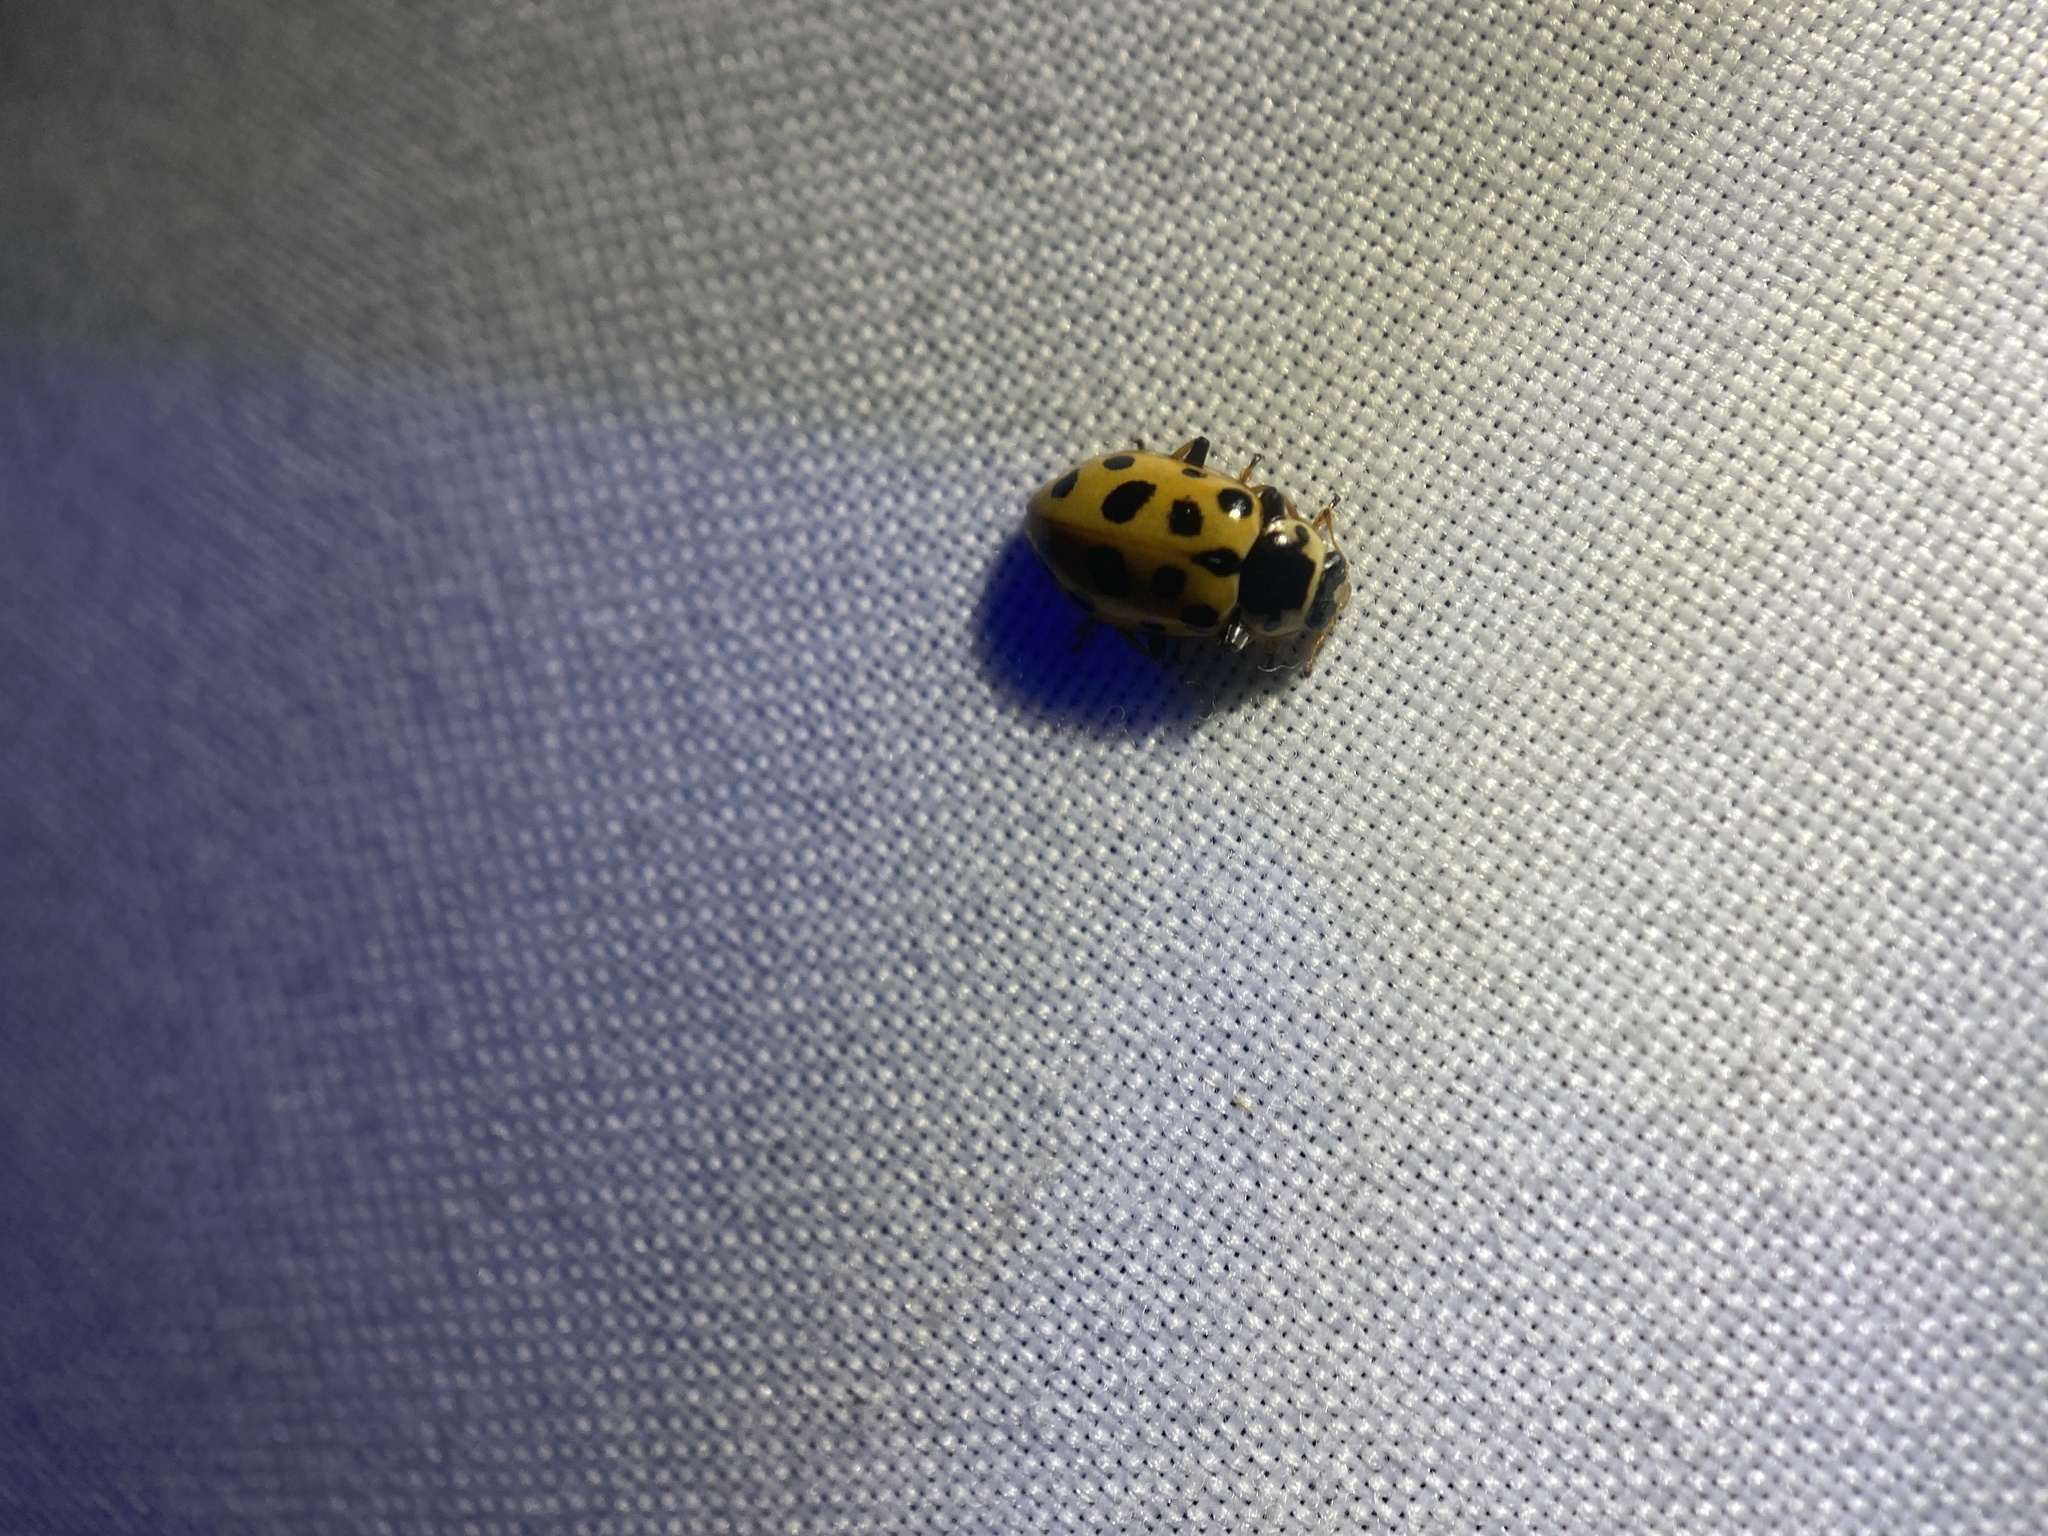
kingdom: Animalia
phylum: Arthropoda
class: Insecta
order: Coleoptera
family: Coccinellidae
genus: Hippodamia
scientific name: Hippodamia tredecimpunctata
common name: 13-spot ladybird
